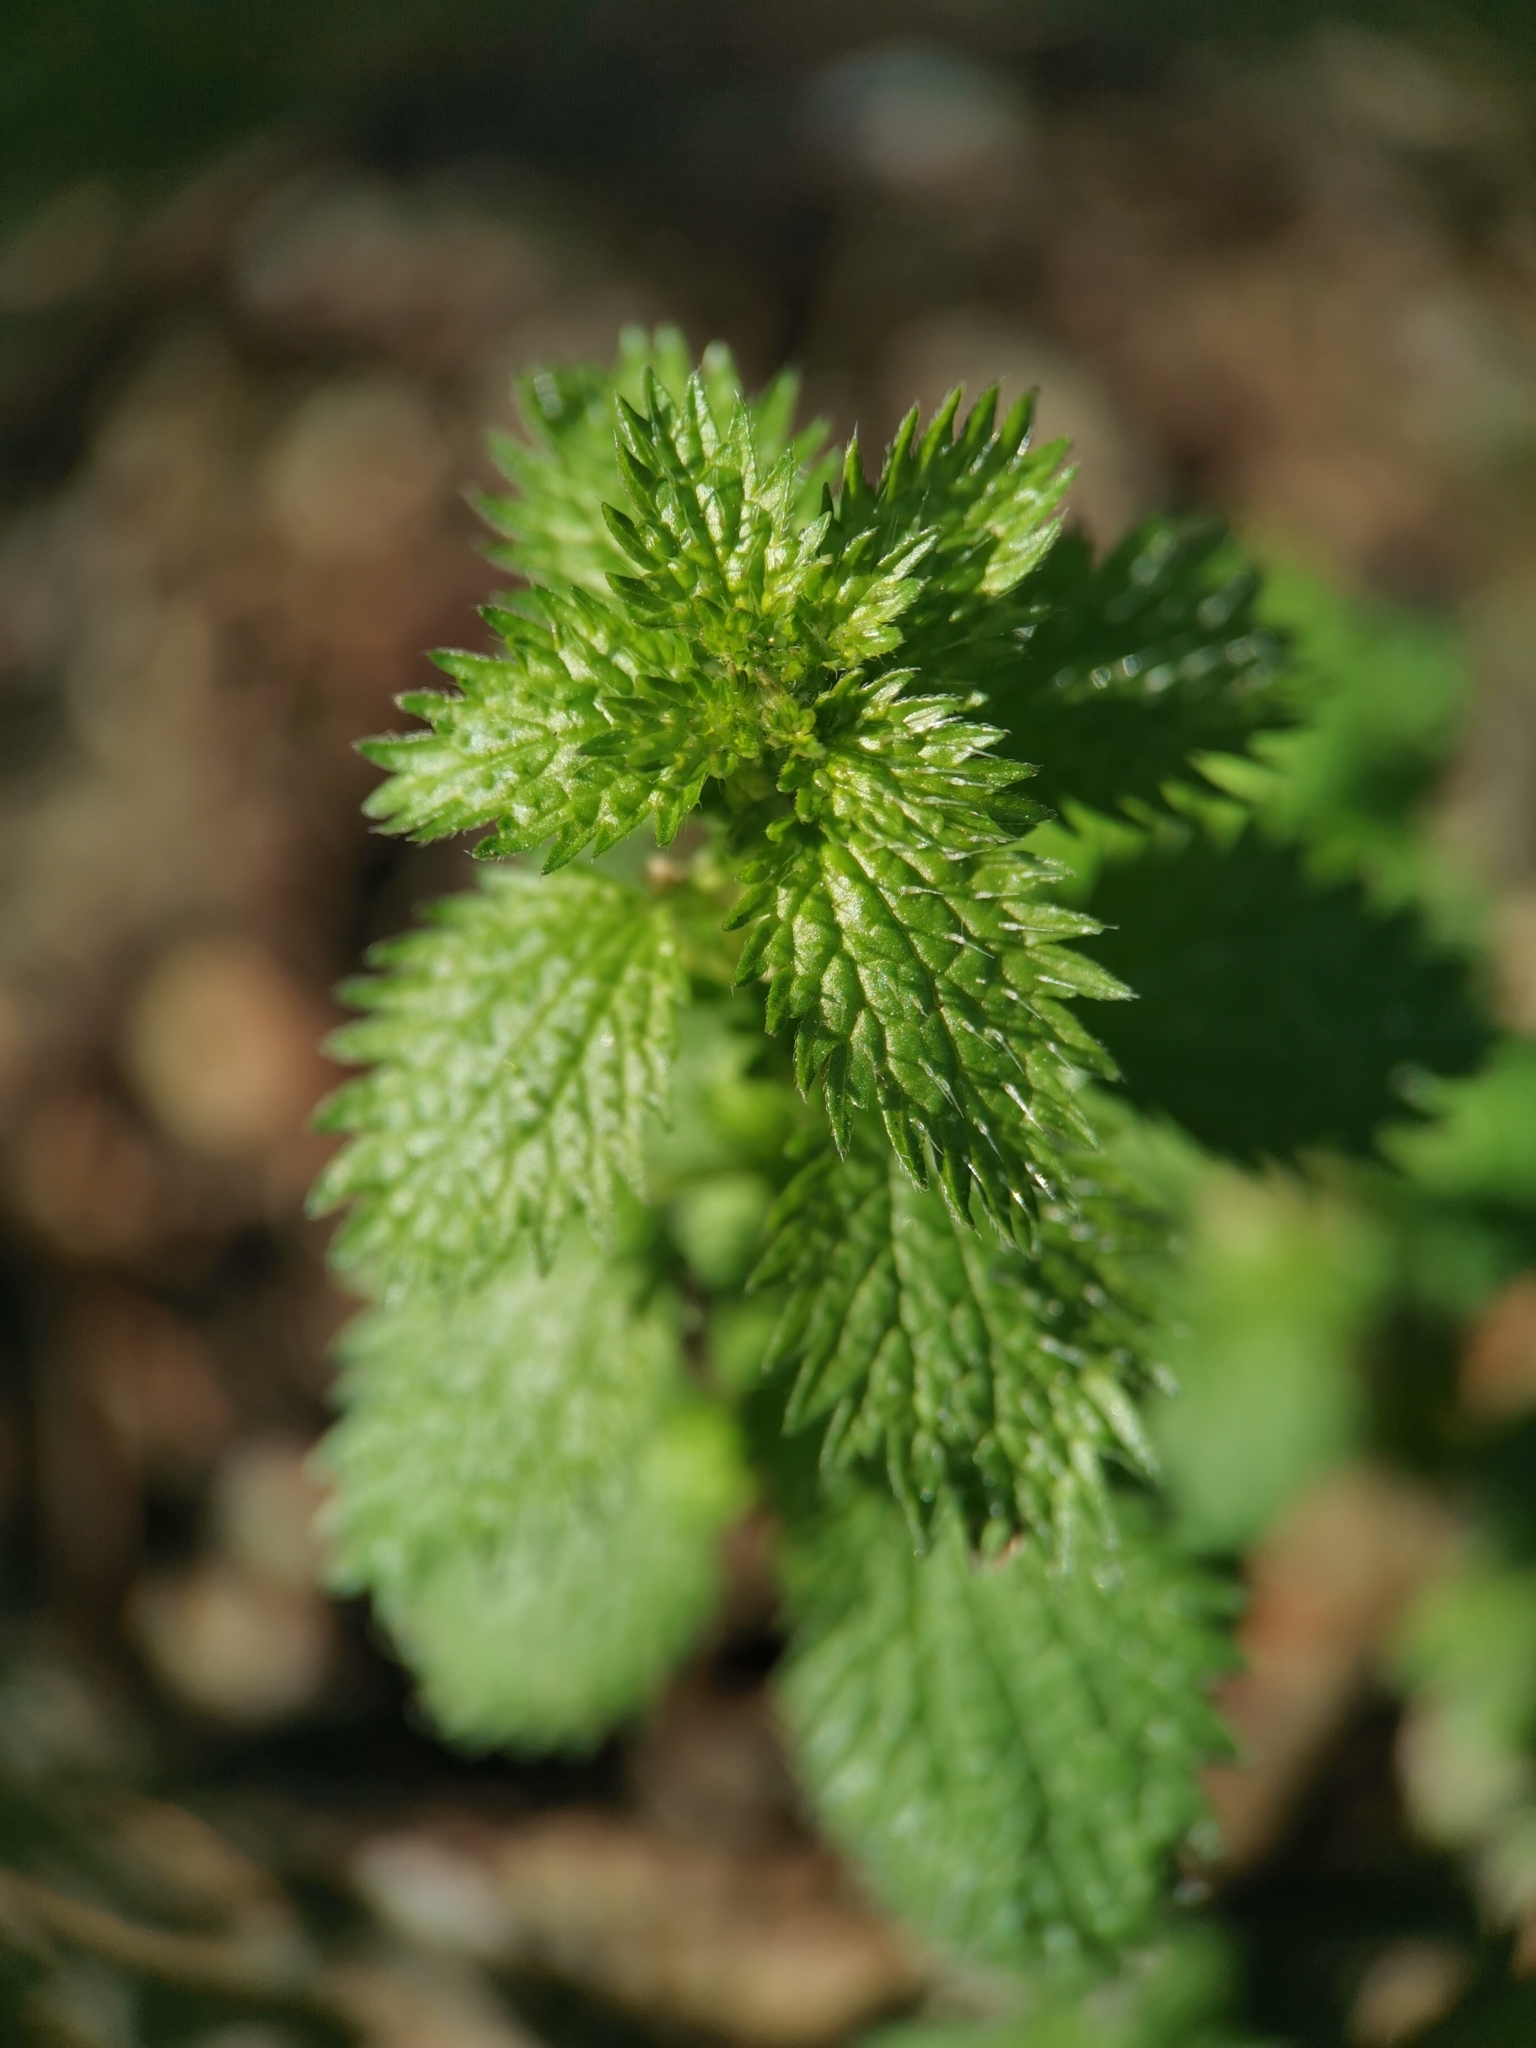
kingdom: Plantae
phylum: Tracheophyta
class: Magnoliopsida
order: Rosales
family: Urticaceae
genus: Urtica
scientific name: Urtica urens
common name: Dwarf nettle
